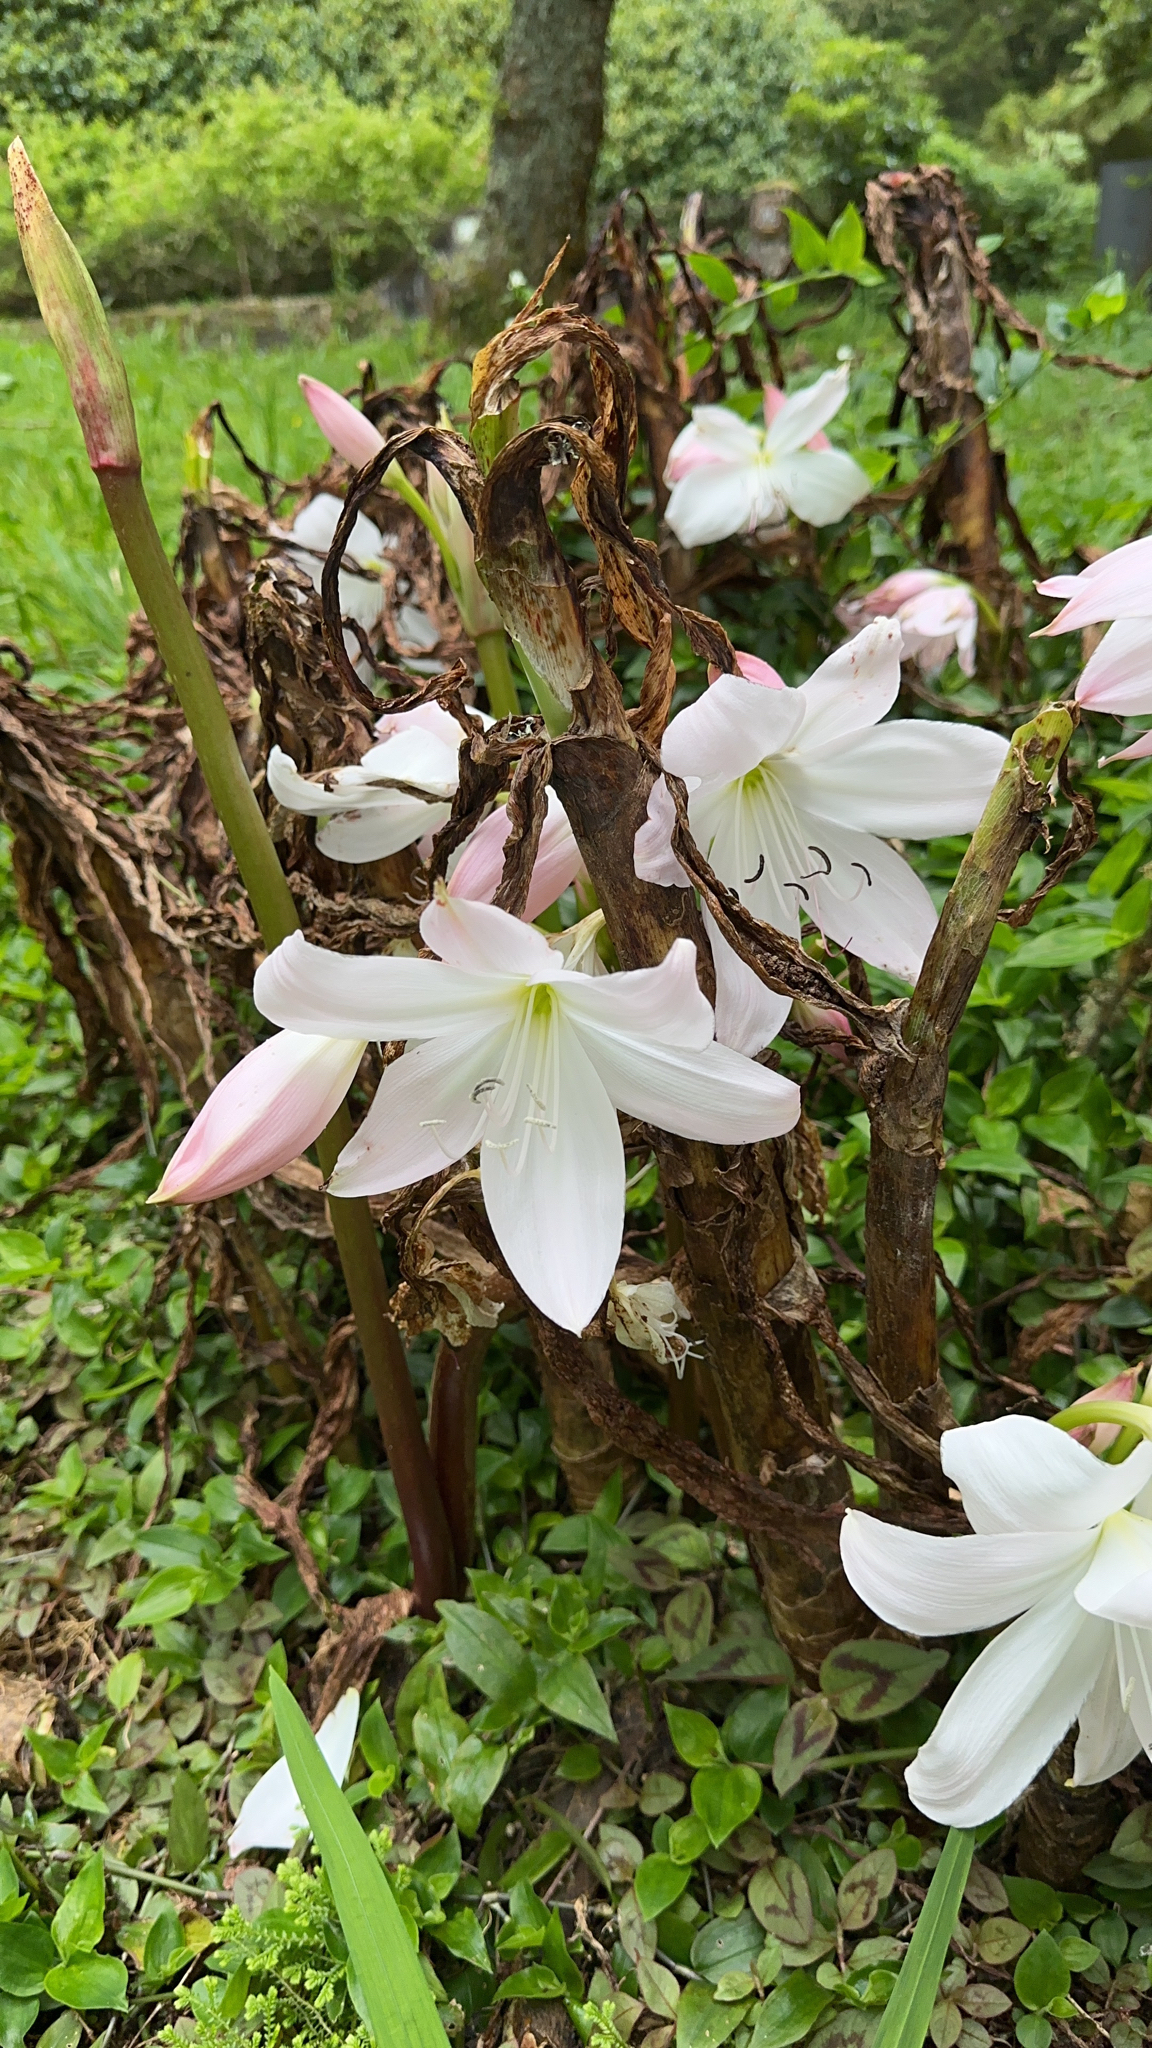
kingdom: Plantae
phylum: Tracheophyta
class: Liliopsida
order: Asparagales
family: Amaryllidaceae
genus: Amaryllis
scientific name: Amaryllis belladonna
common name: Jersey lily
